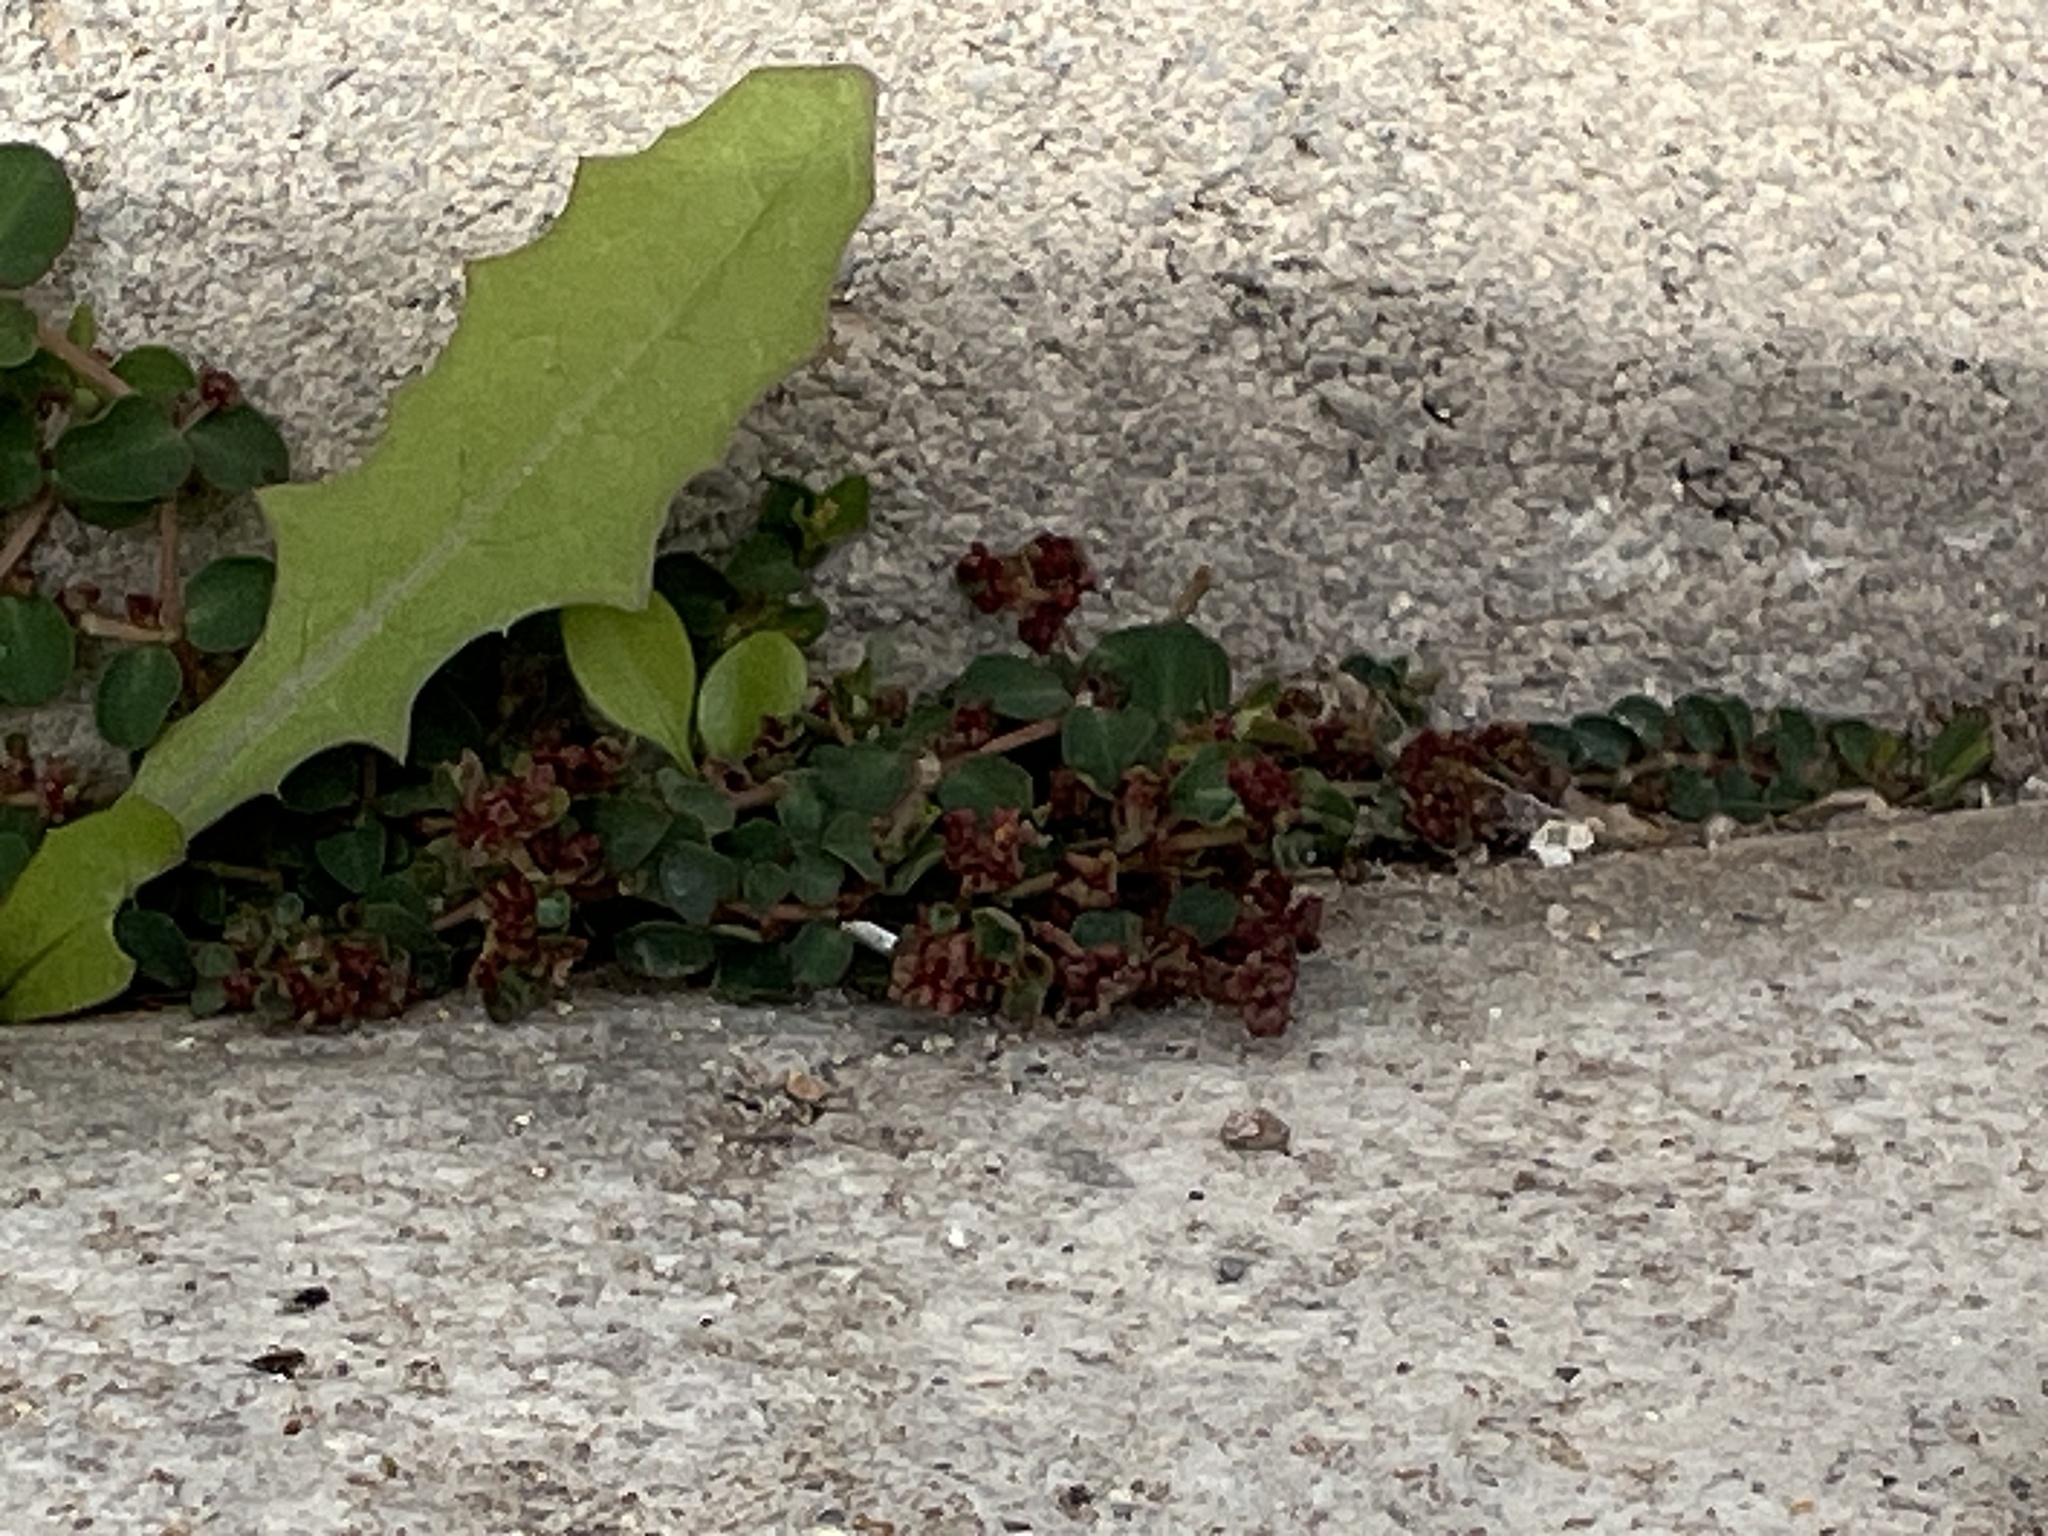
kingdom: Plantae
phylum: Tracheophyta
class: Magnoliopsida
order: Malpighiales
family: Euphorbiaceae
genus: Euphorbia
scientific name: Euphorbia serpens
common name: Matted sandmat
